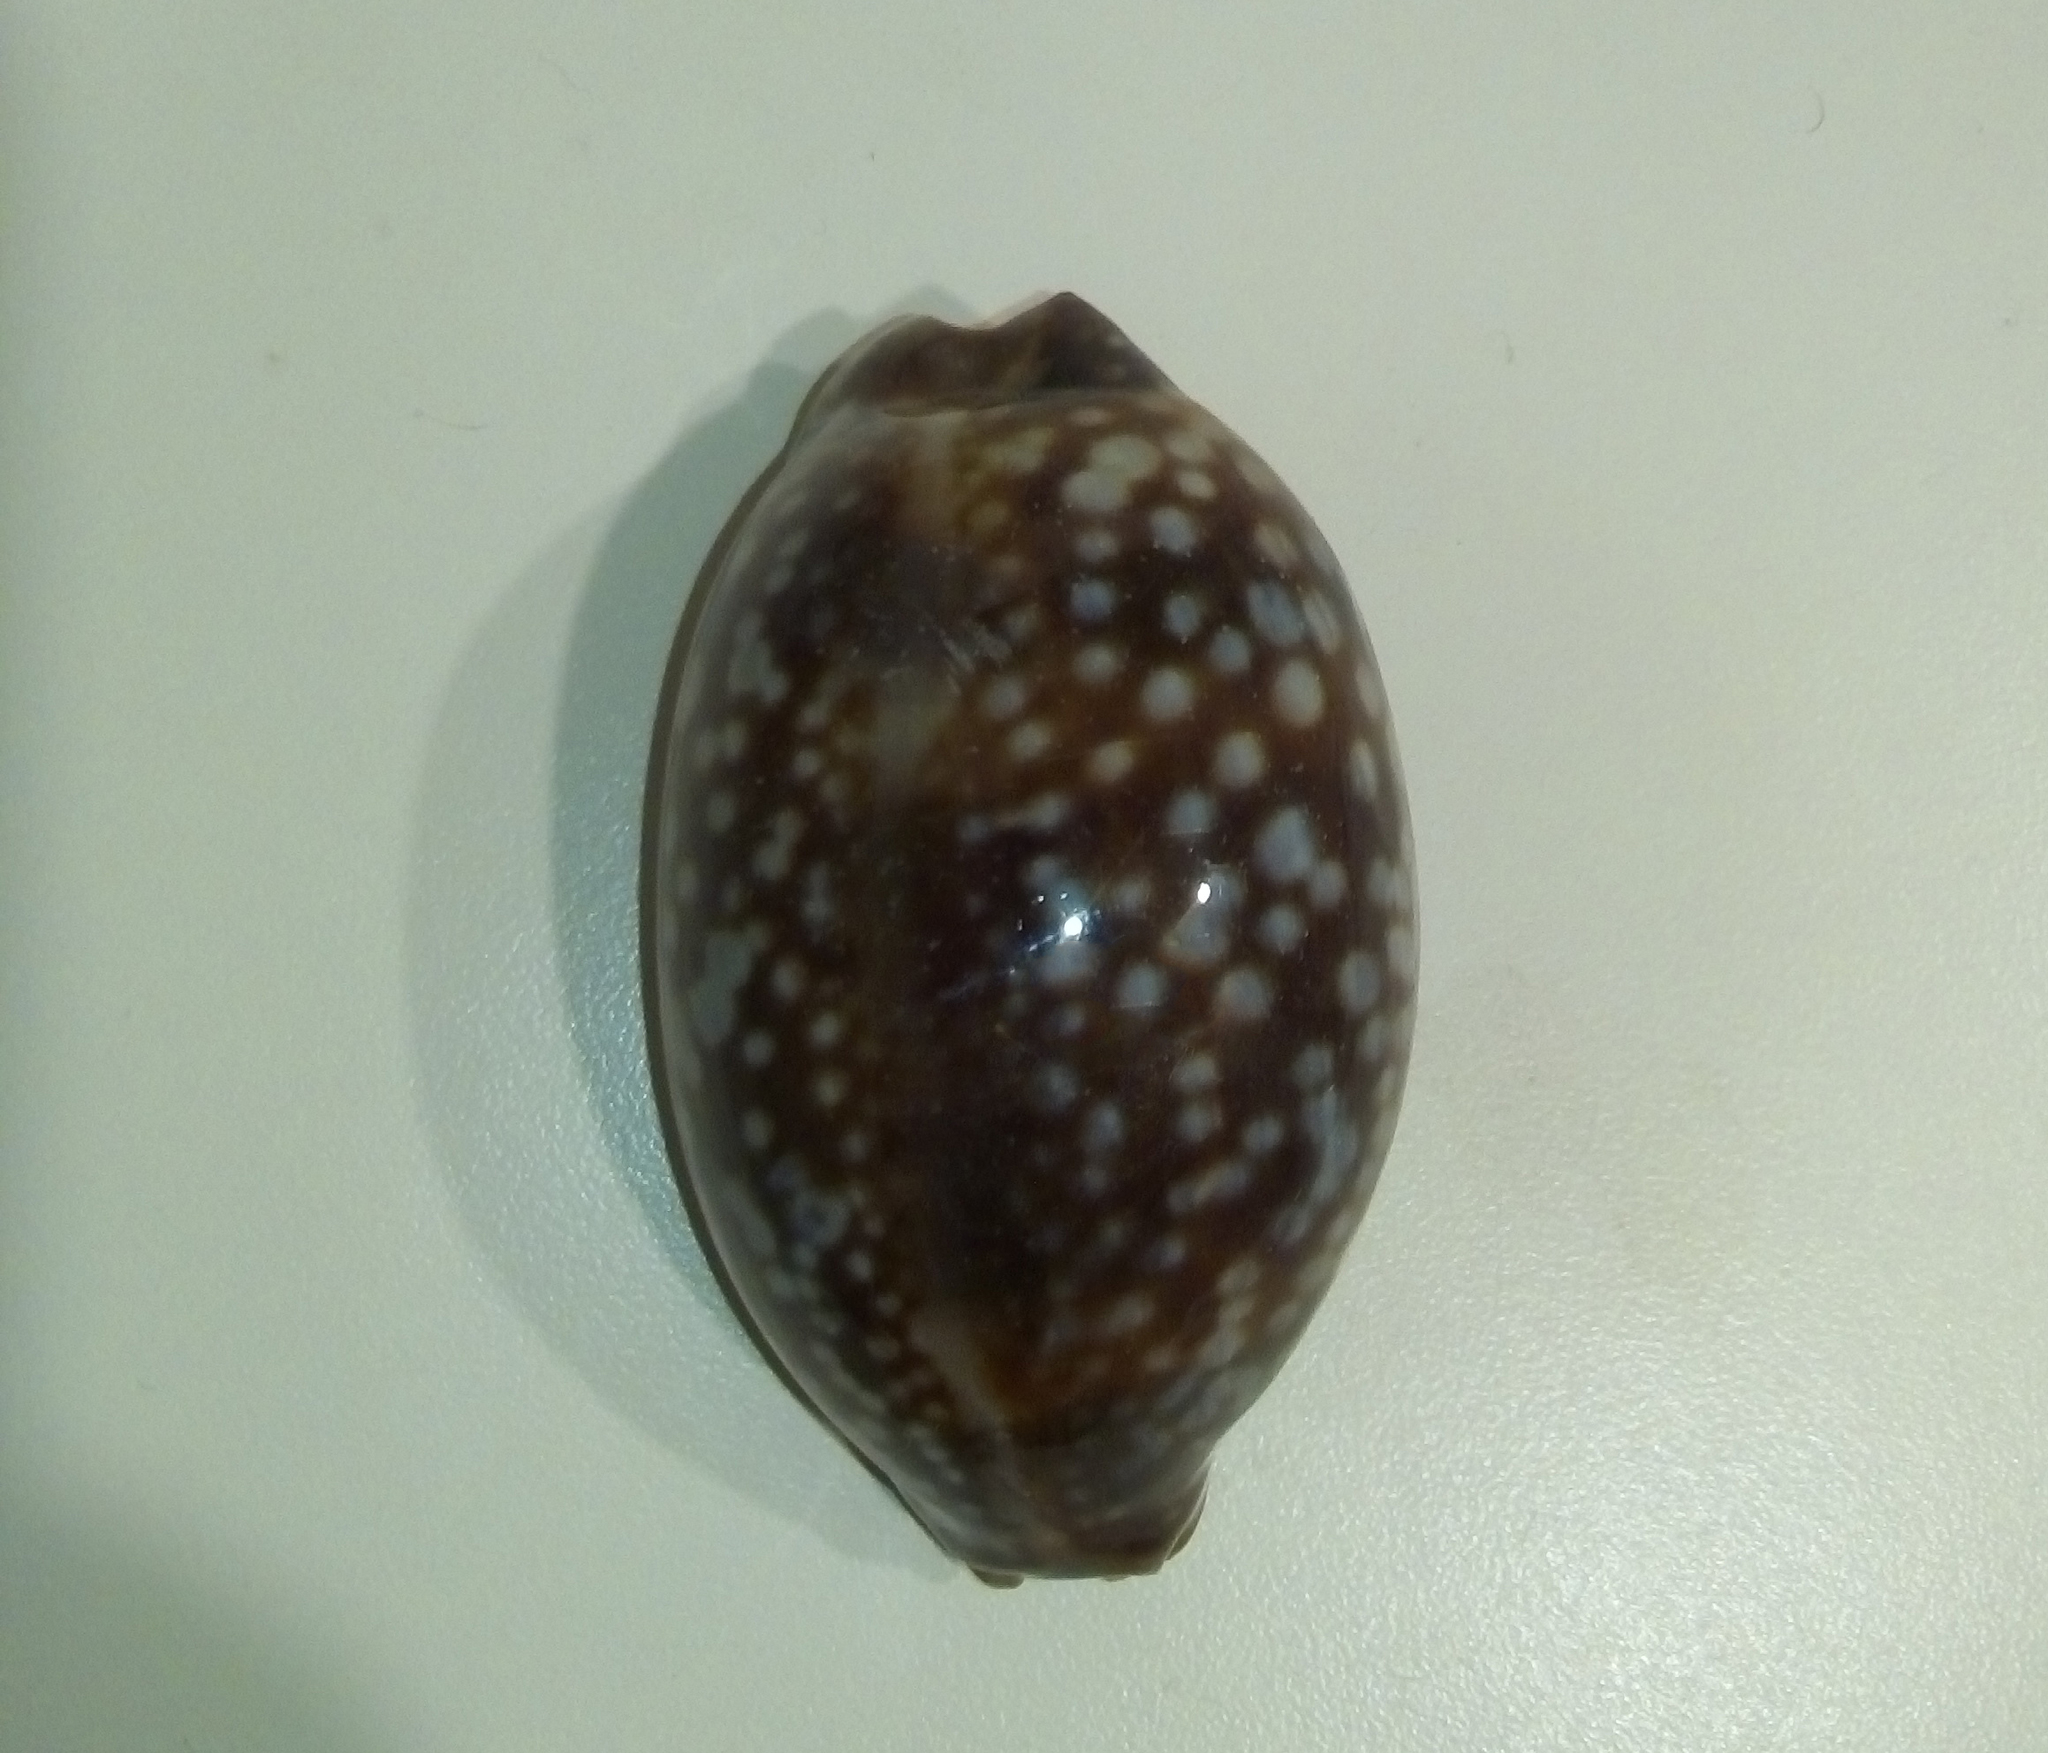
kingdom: Animalia
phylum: Mollusca
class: Gastropoda
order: Littorinimorpha
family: Cypraeidae
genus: Macrocypraea
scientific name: Macrocypraea cervus
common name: Atlantic deer cowrie
